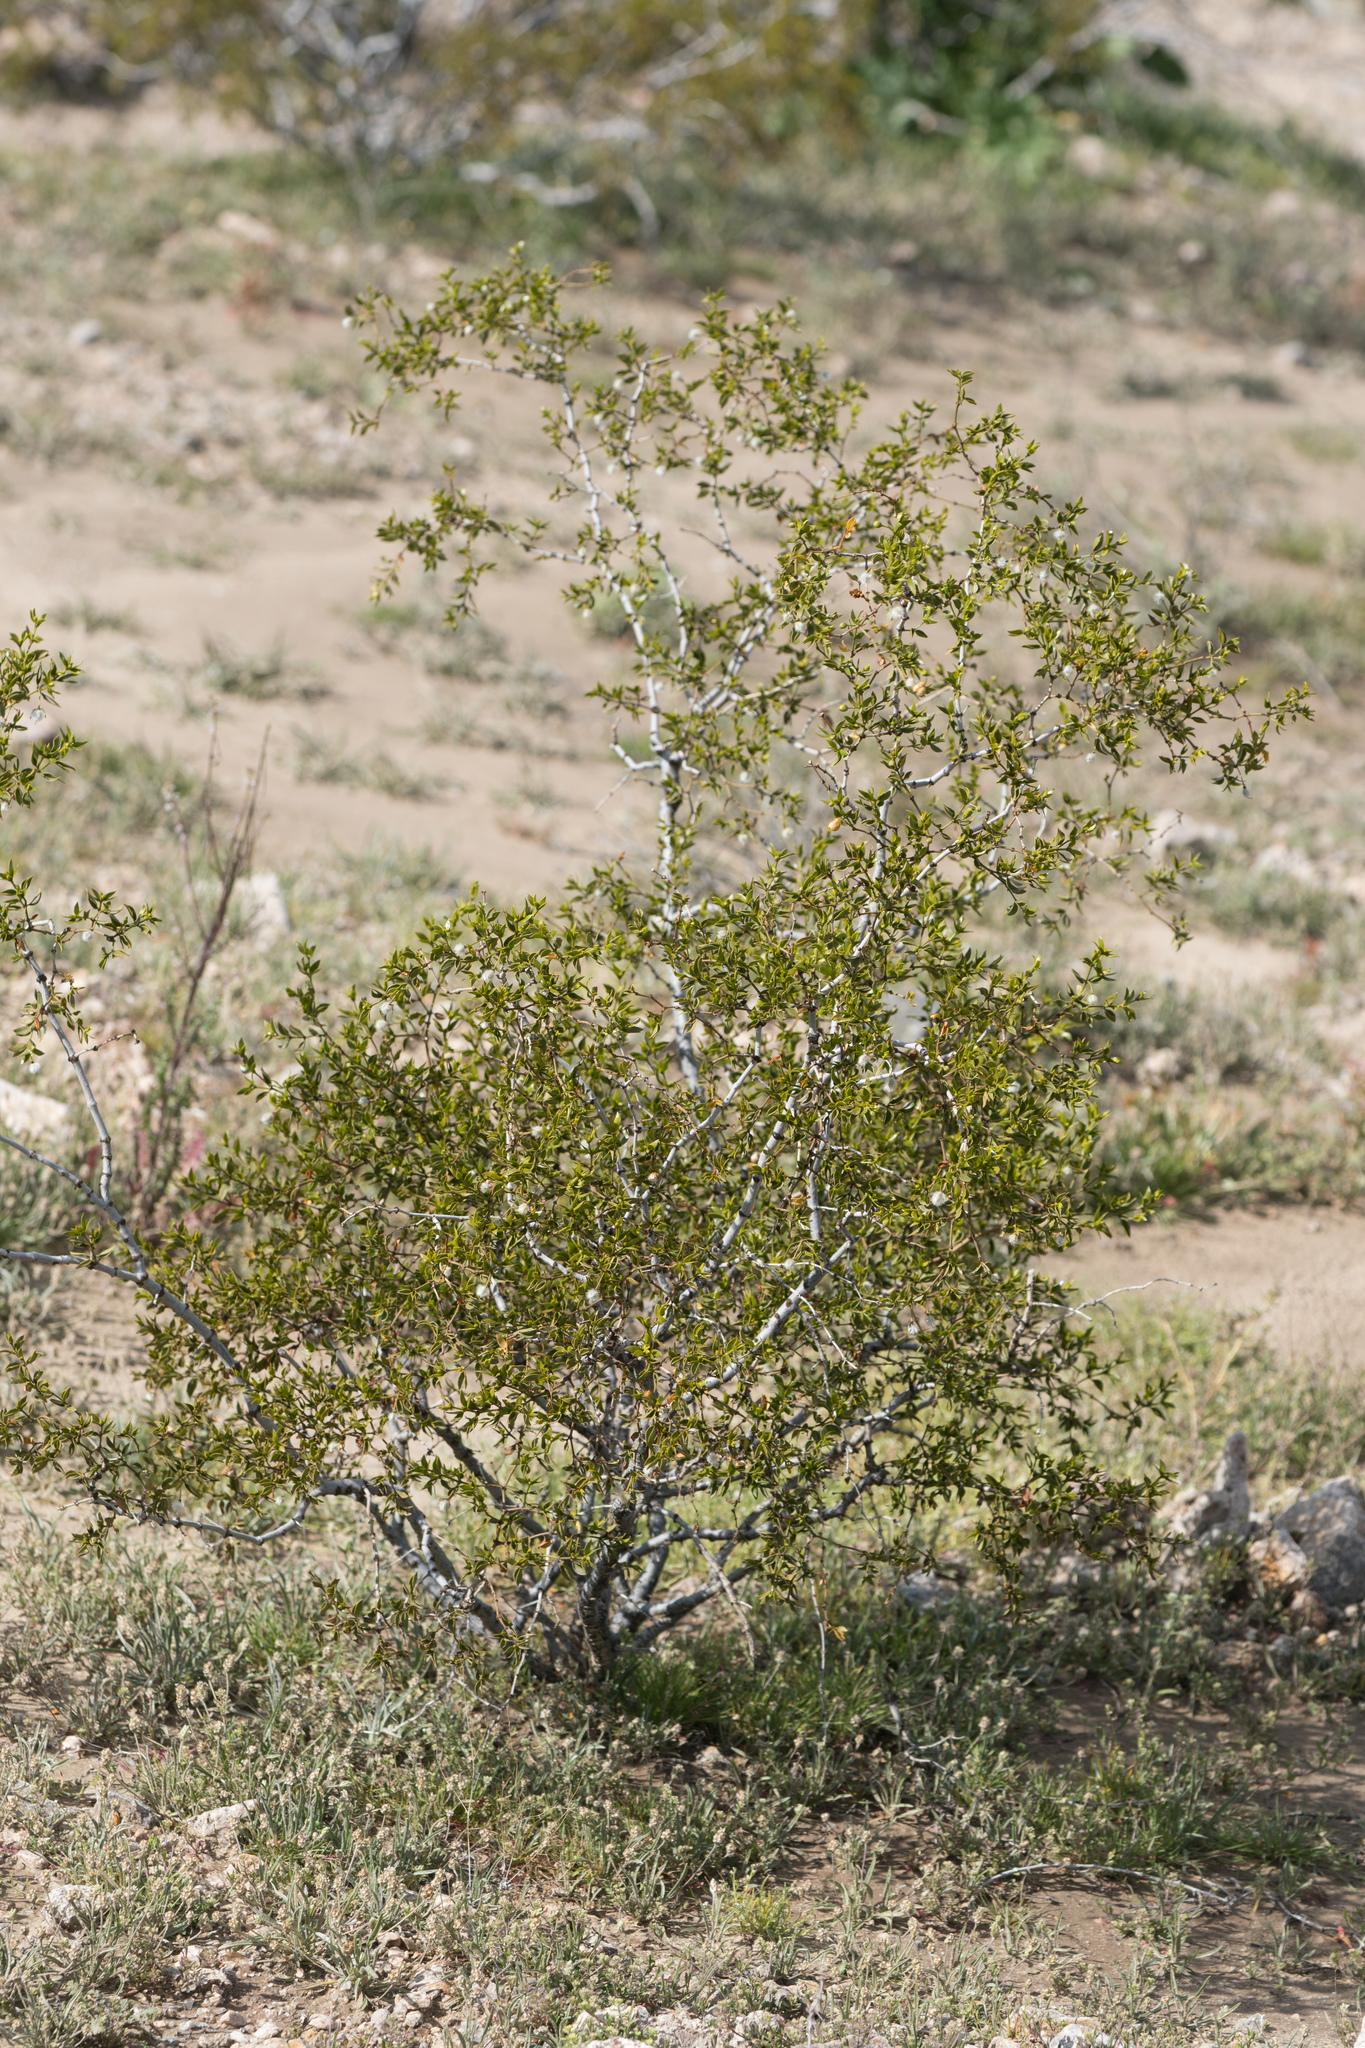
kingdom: Plantae
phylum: Tracheophyta
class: Magnoliopsida
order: Zygophyllales
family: Zygophyllaceae
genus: Larrea
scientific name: Larrea tridentata
